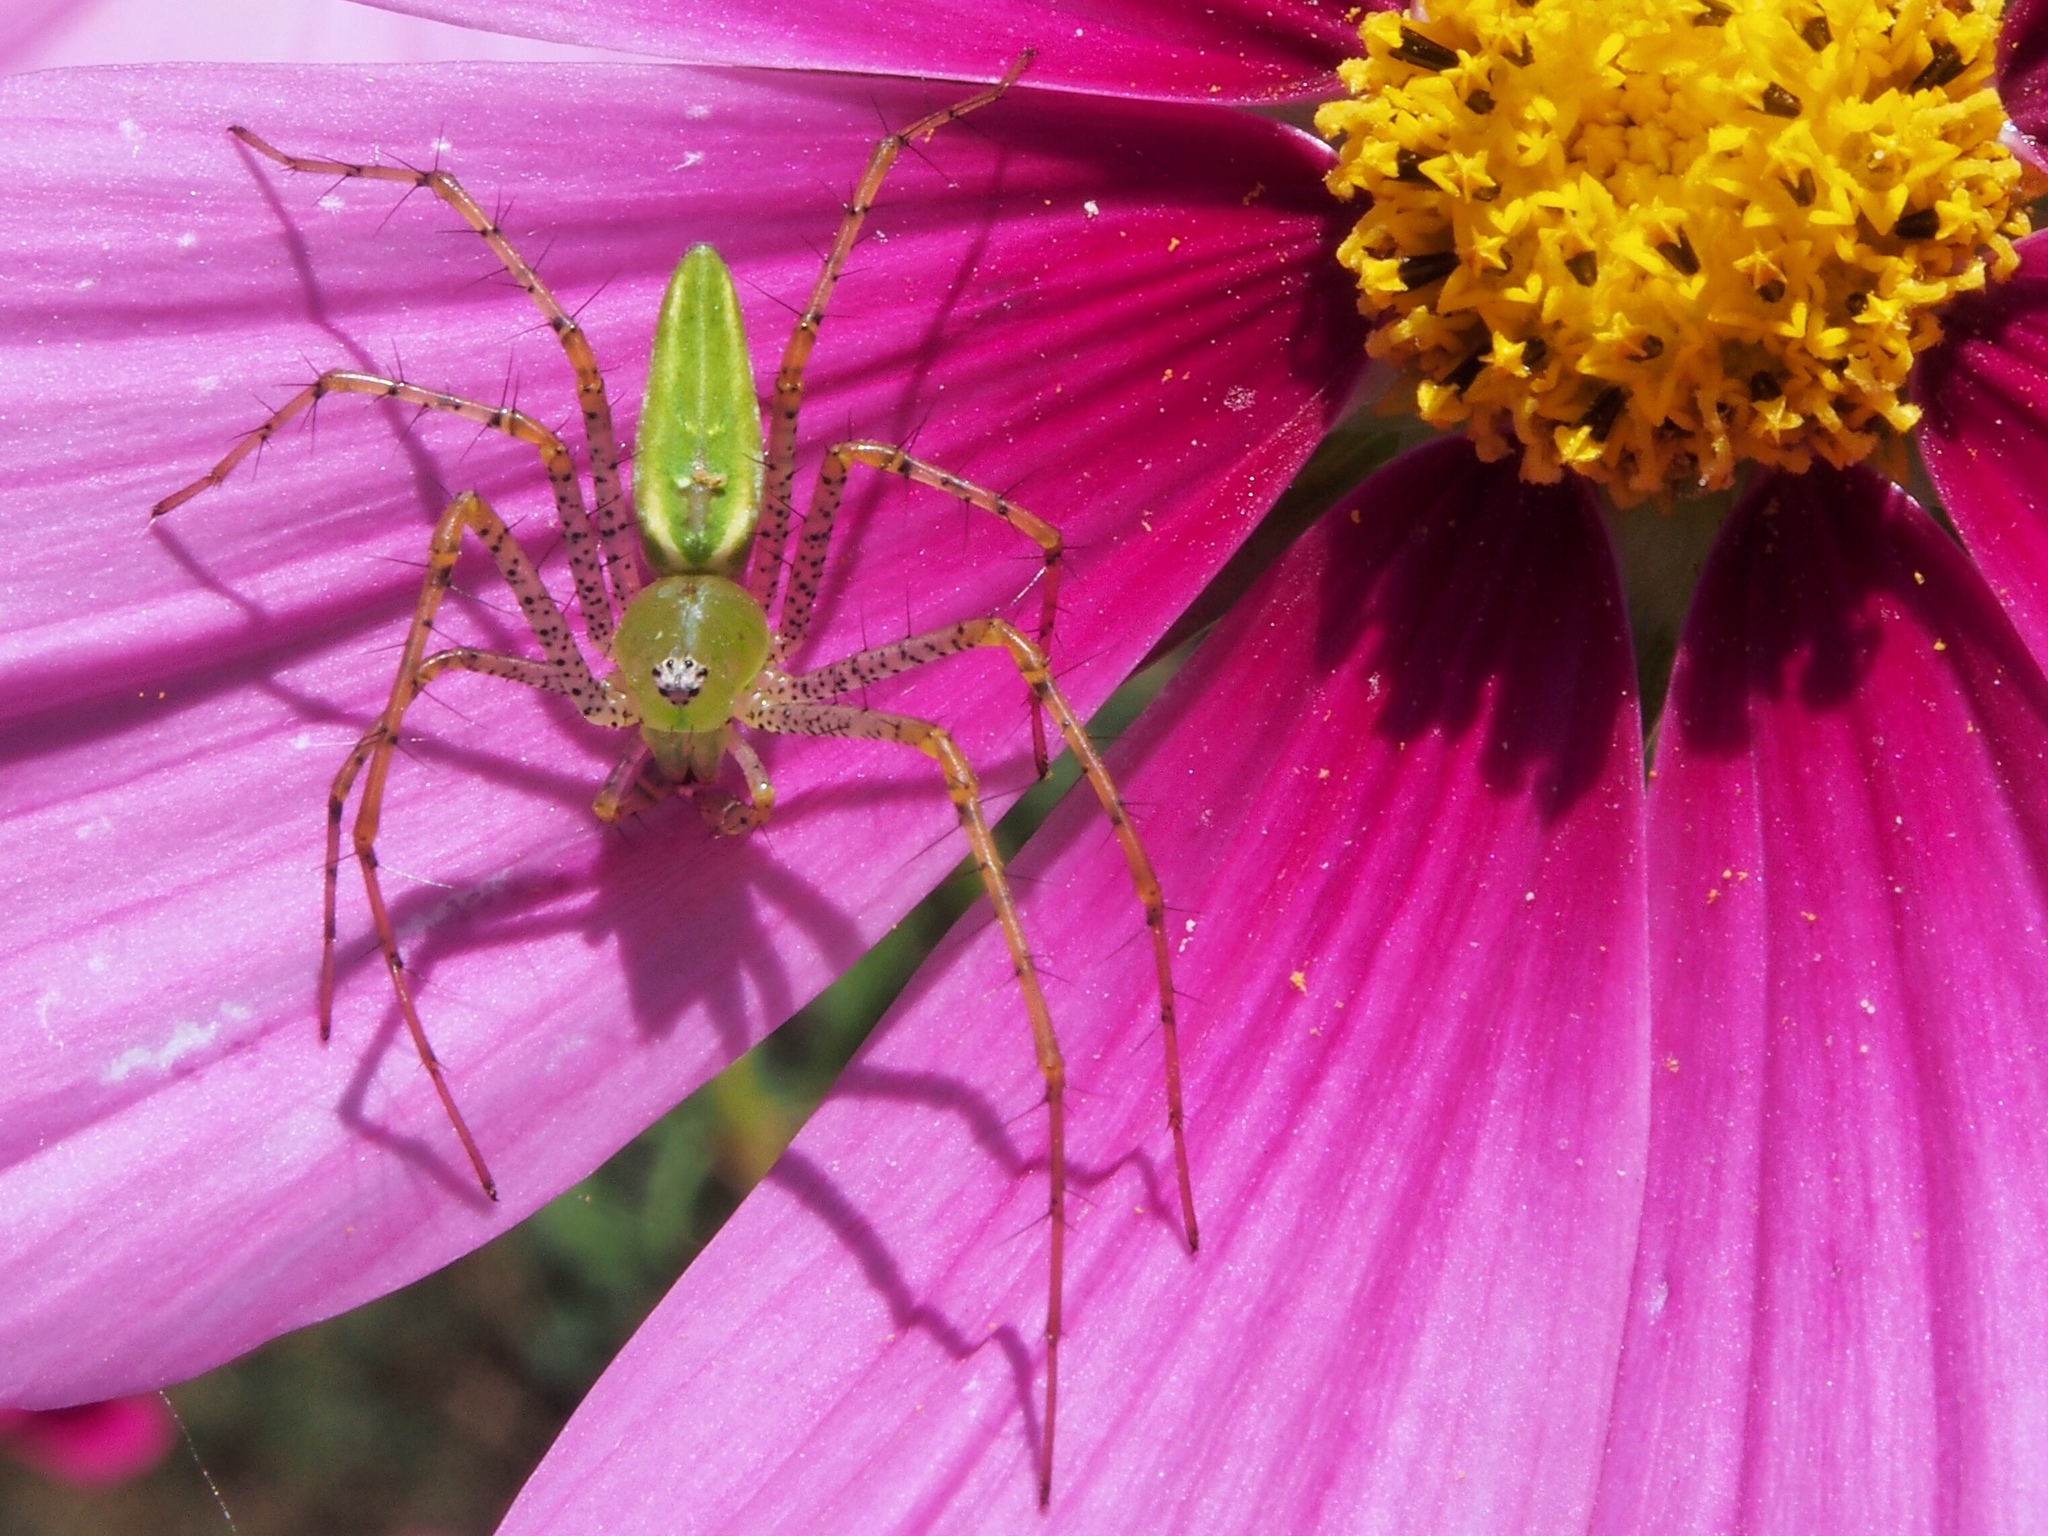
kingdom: Animalia
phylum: Arthropoda
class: Arachnida
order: Araneae
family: Oxyopidae
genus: Peucetia
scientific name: Peucetia viridans
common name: Lynx spiders
